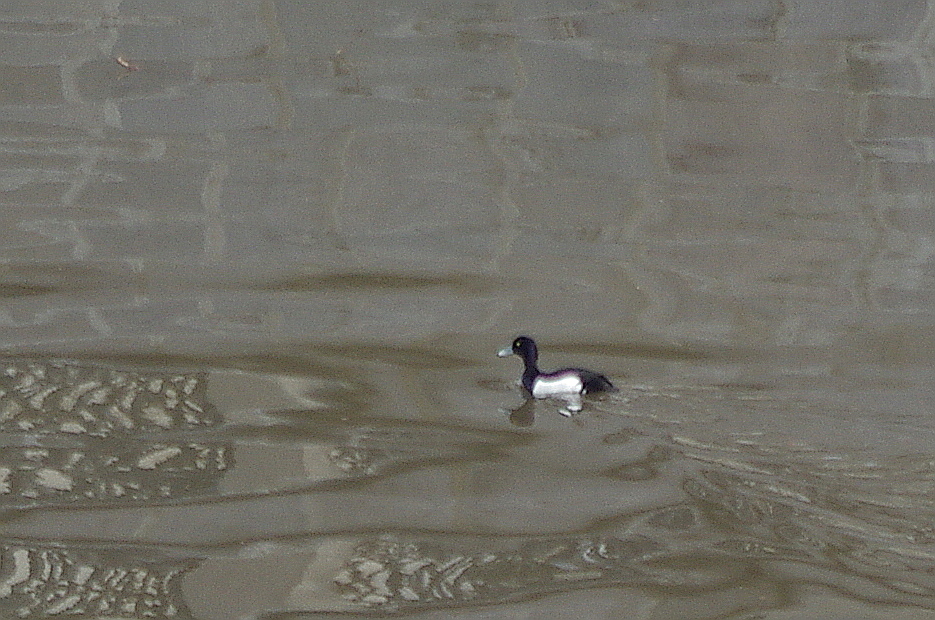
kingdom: Animalia
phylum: Chordata
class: Aves
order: Anseriformes
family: Anatidae
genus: Aythya
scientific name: Aythya fuligula
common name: Tufted duck
